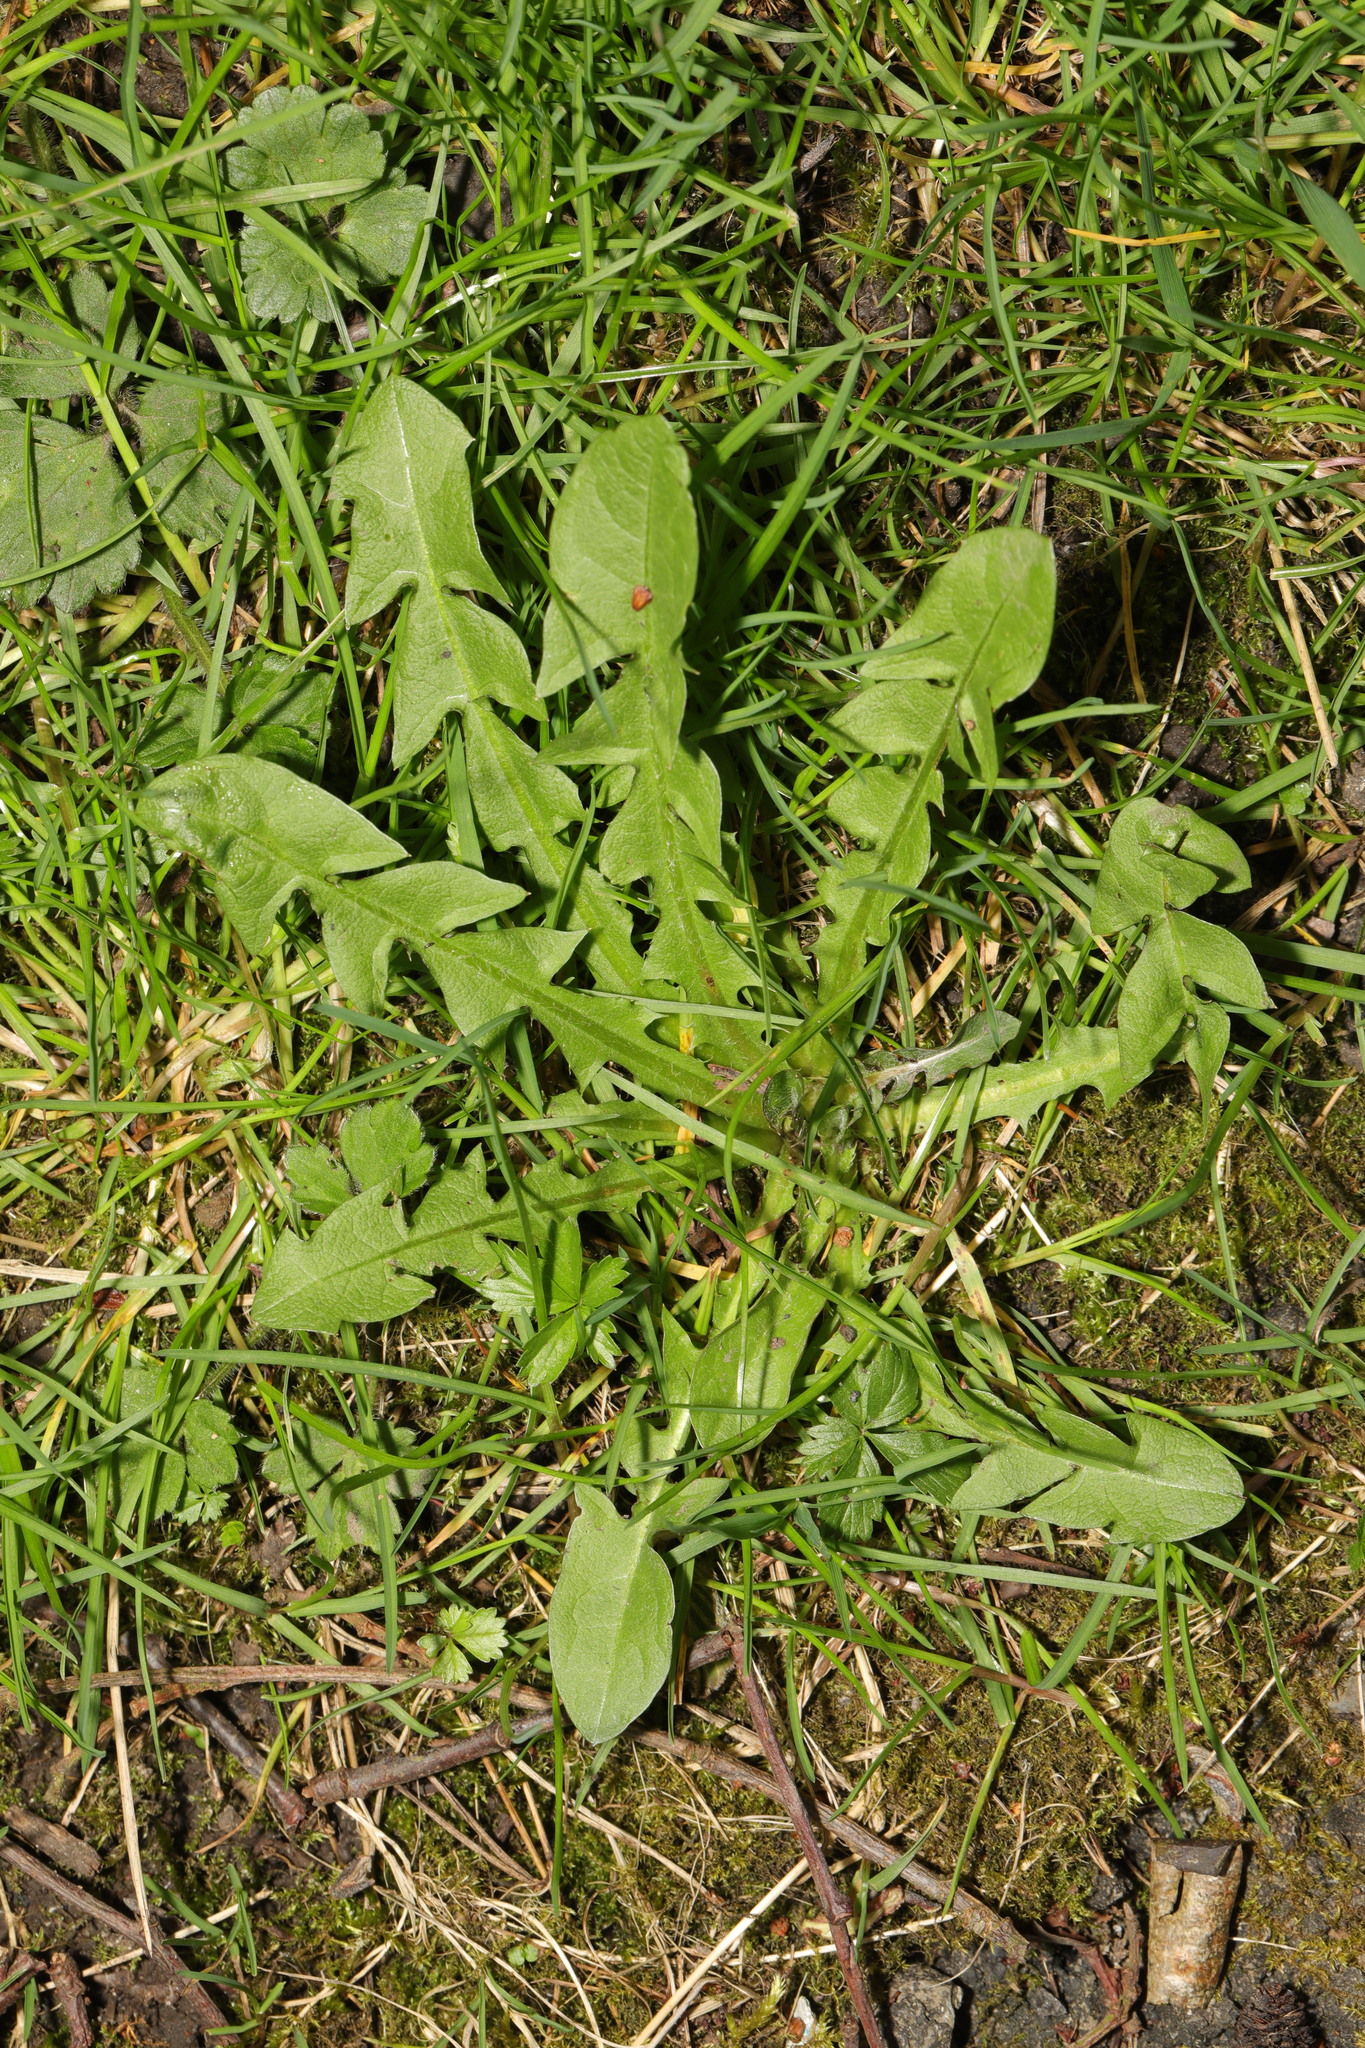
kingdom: Plantae
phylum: Tracheophyta
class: Magnoliopsida
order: Asterales
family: Asteraceae
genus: Taraxacum
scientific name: Taraxacum officinale
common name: Common dandelion
